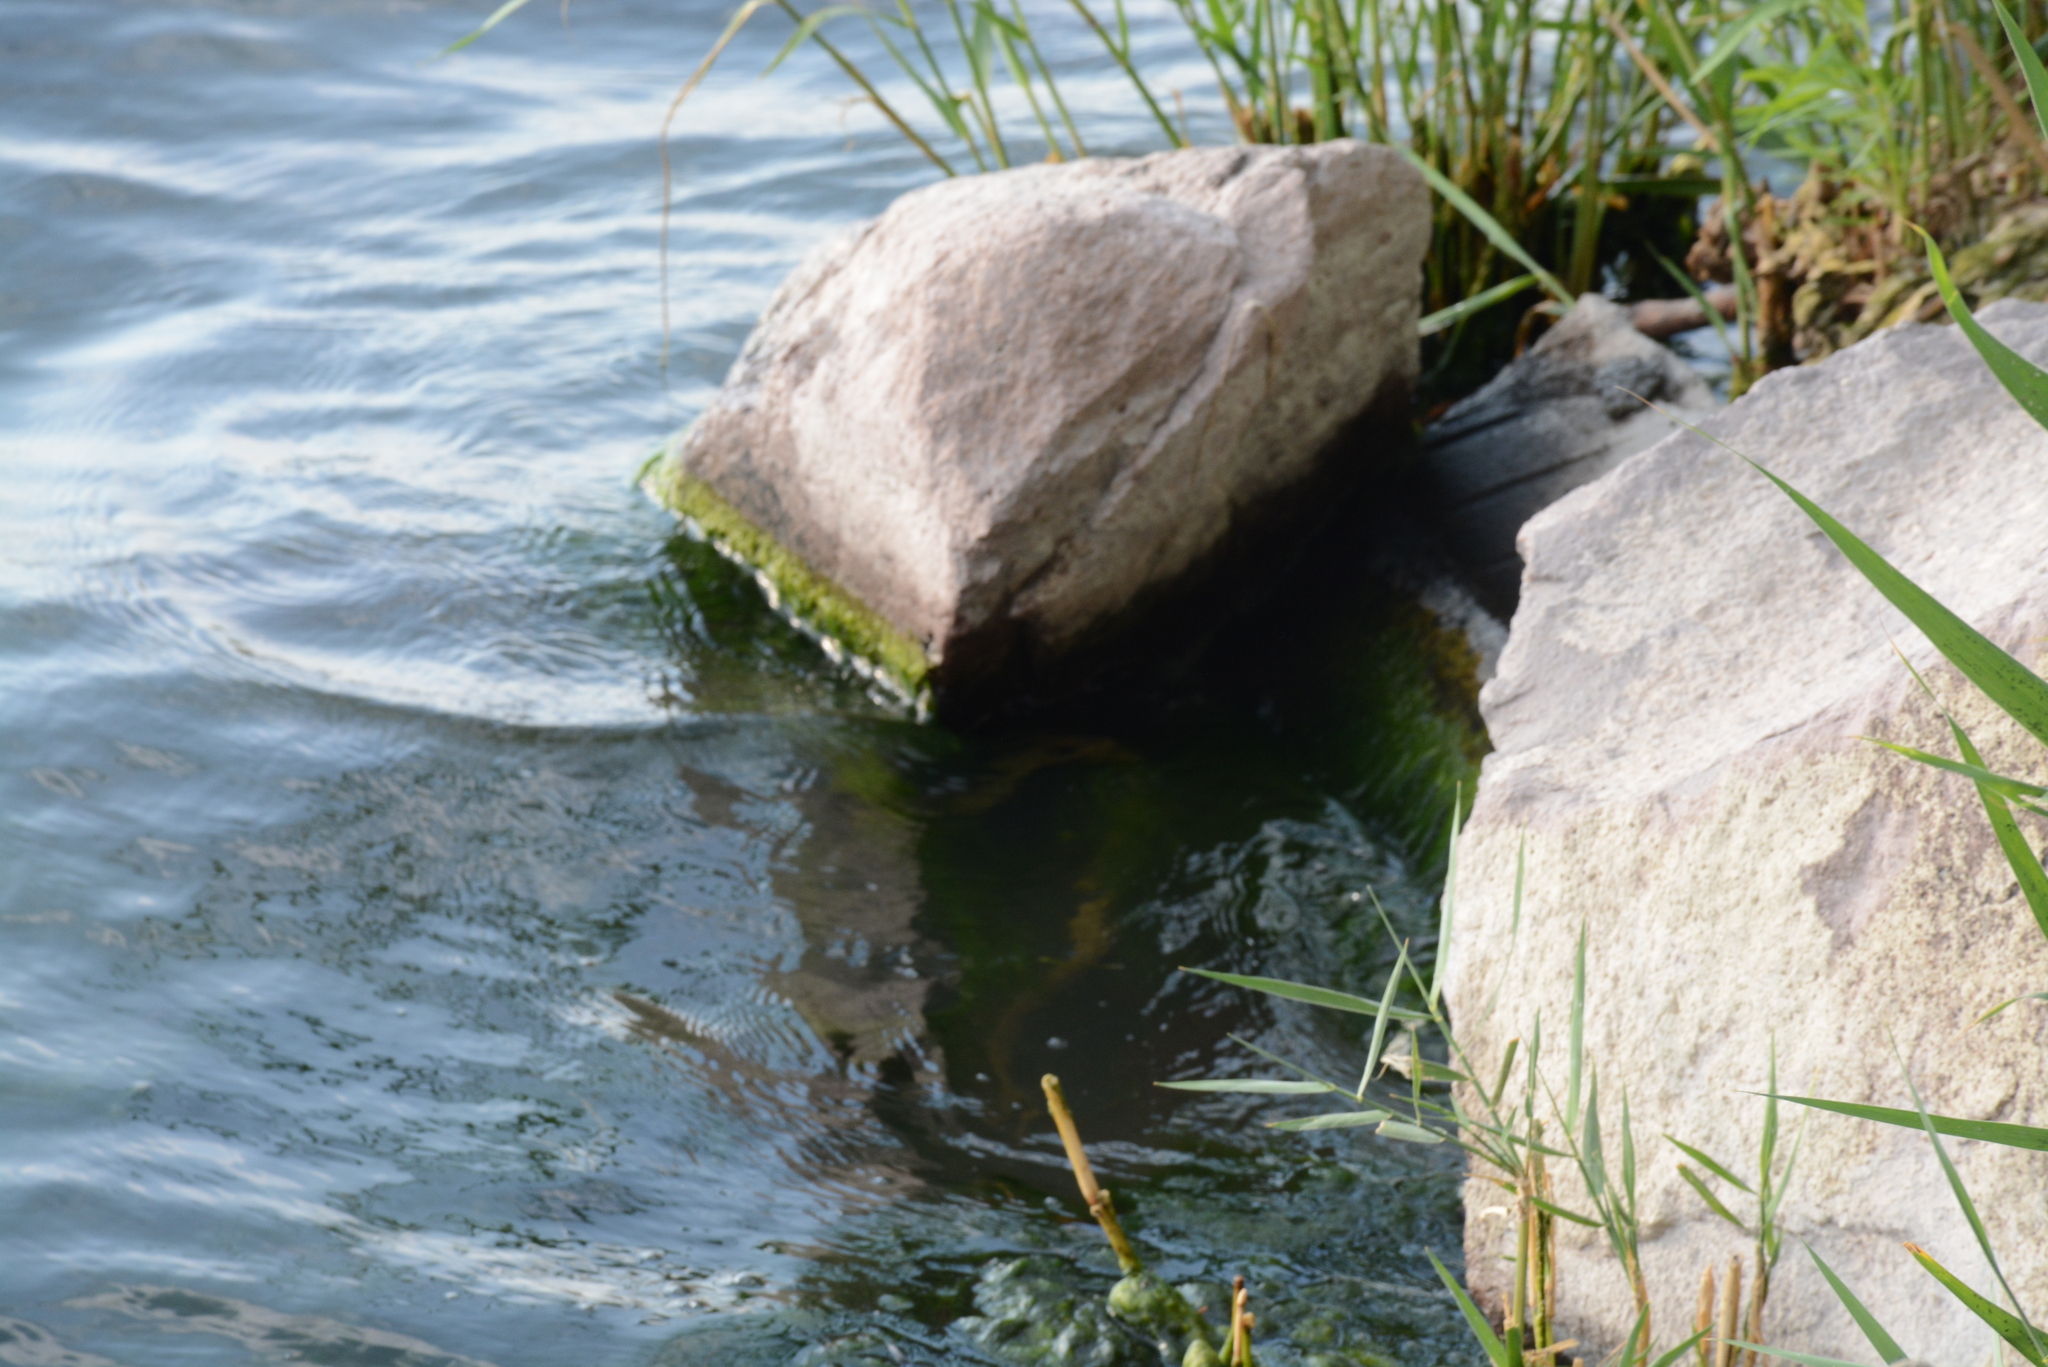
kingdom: Animalia
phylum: Chordata
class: Squamata
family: Colubridae
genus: Natrix
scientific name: Natrix tessellata
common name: Dice snake
